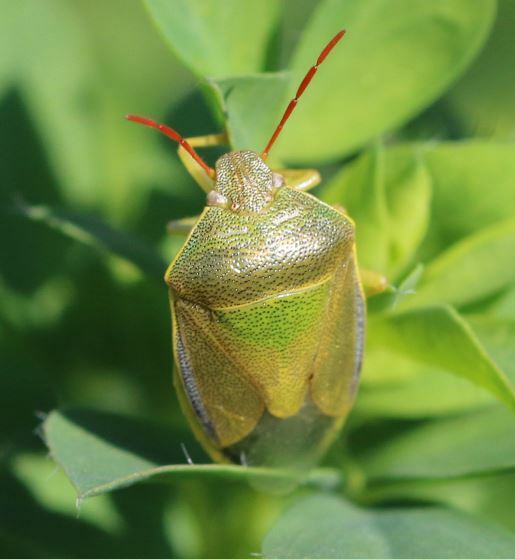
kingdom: Animalia
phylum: Arthropoda
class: Insecta
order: Hemiptera
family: Pentatomidae
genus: Piezodorus
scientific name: Piezodorus lituratus
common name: Stink bug
